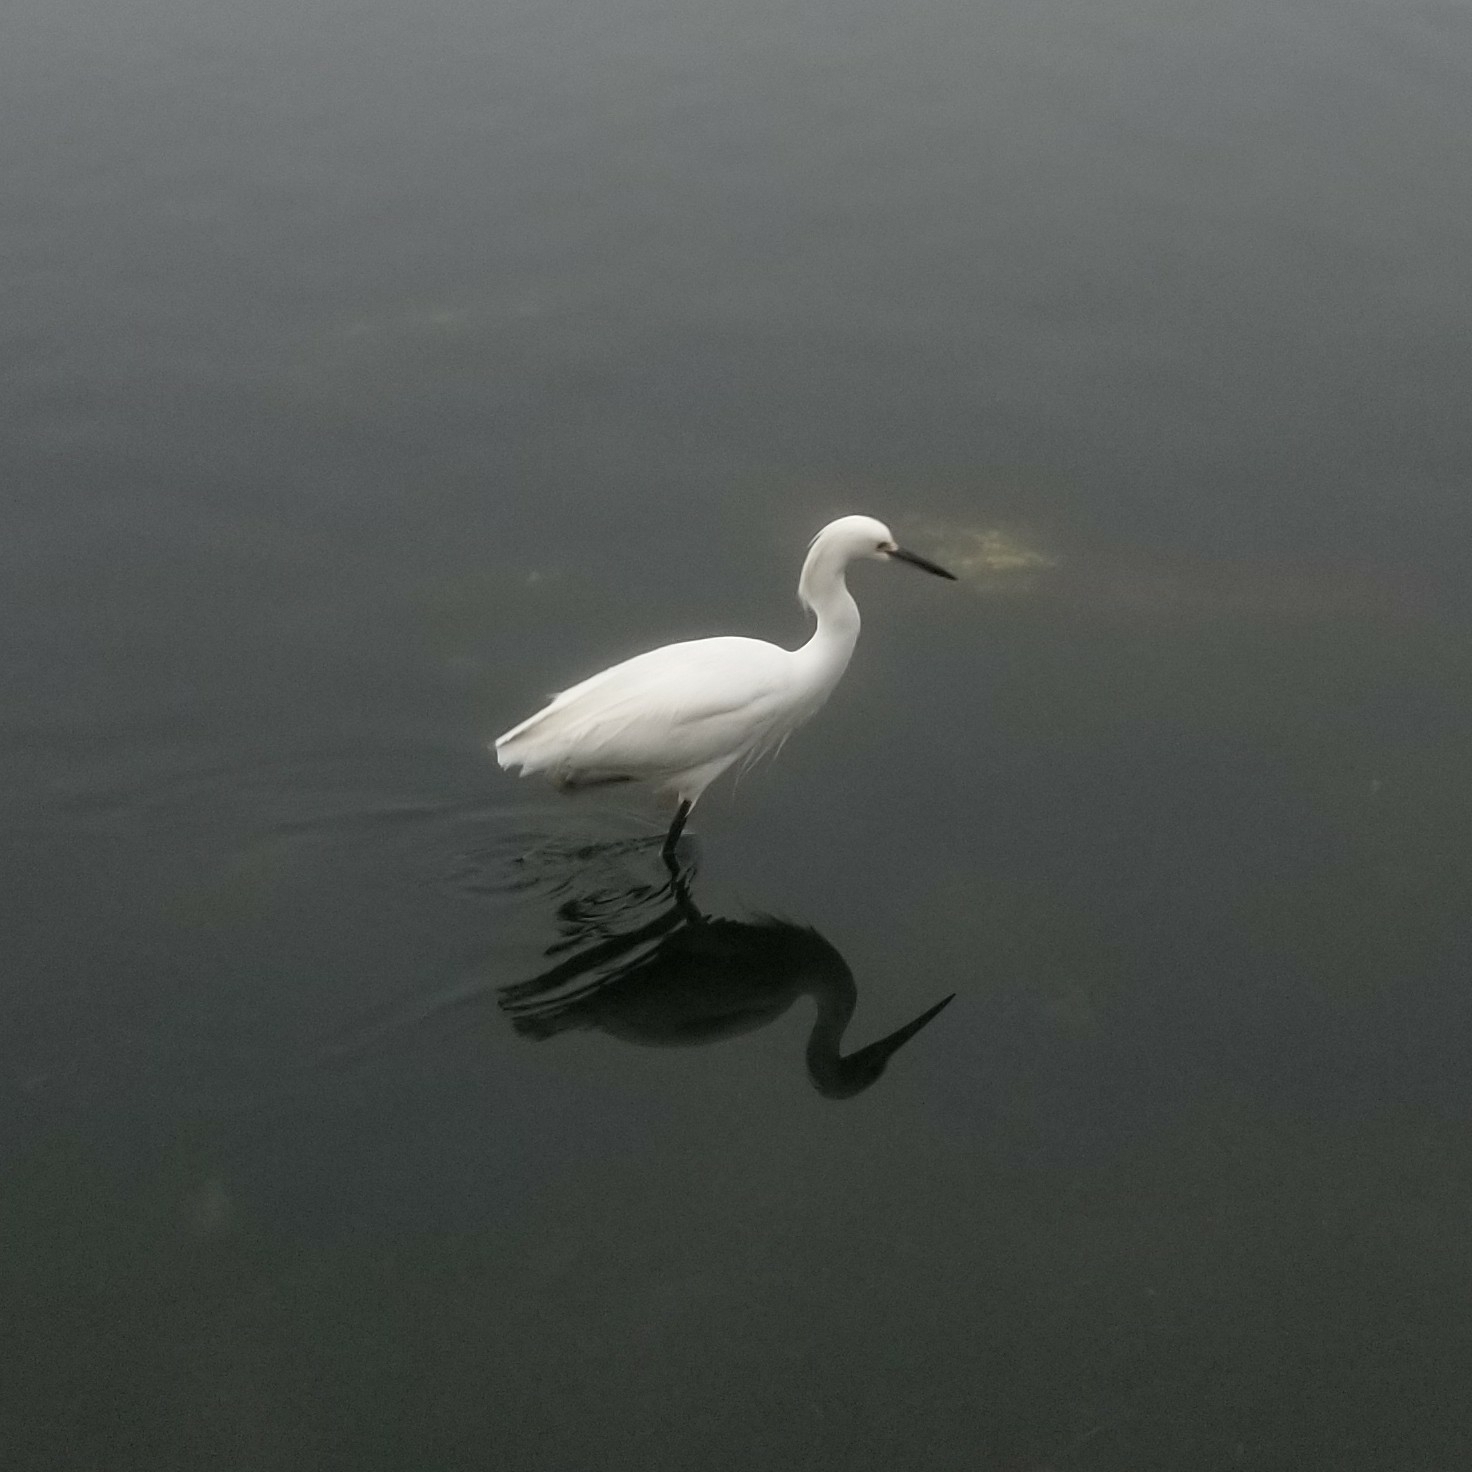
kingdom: Animalia
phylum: Chordata
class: Aves
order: Pelecaniformes
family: Ardeidae
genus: Egretta
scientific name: Egretta thula
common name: Snowy egret
